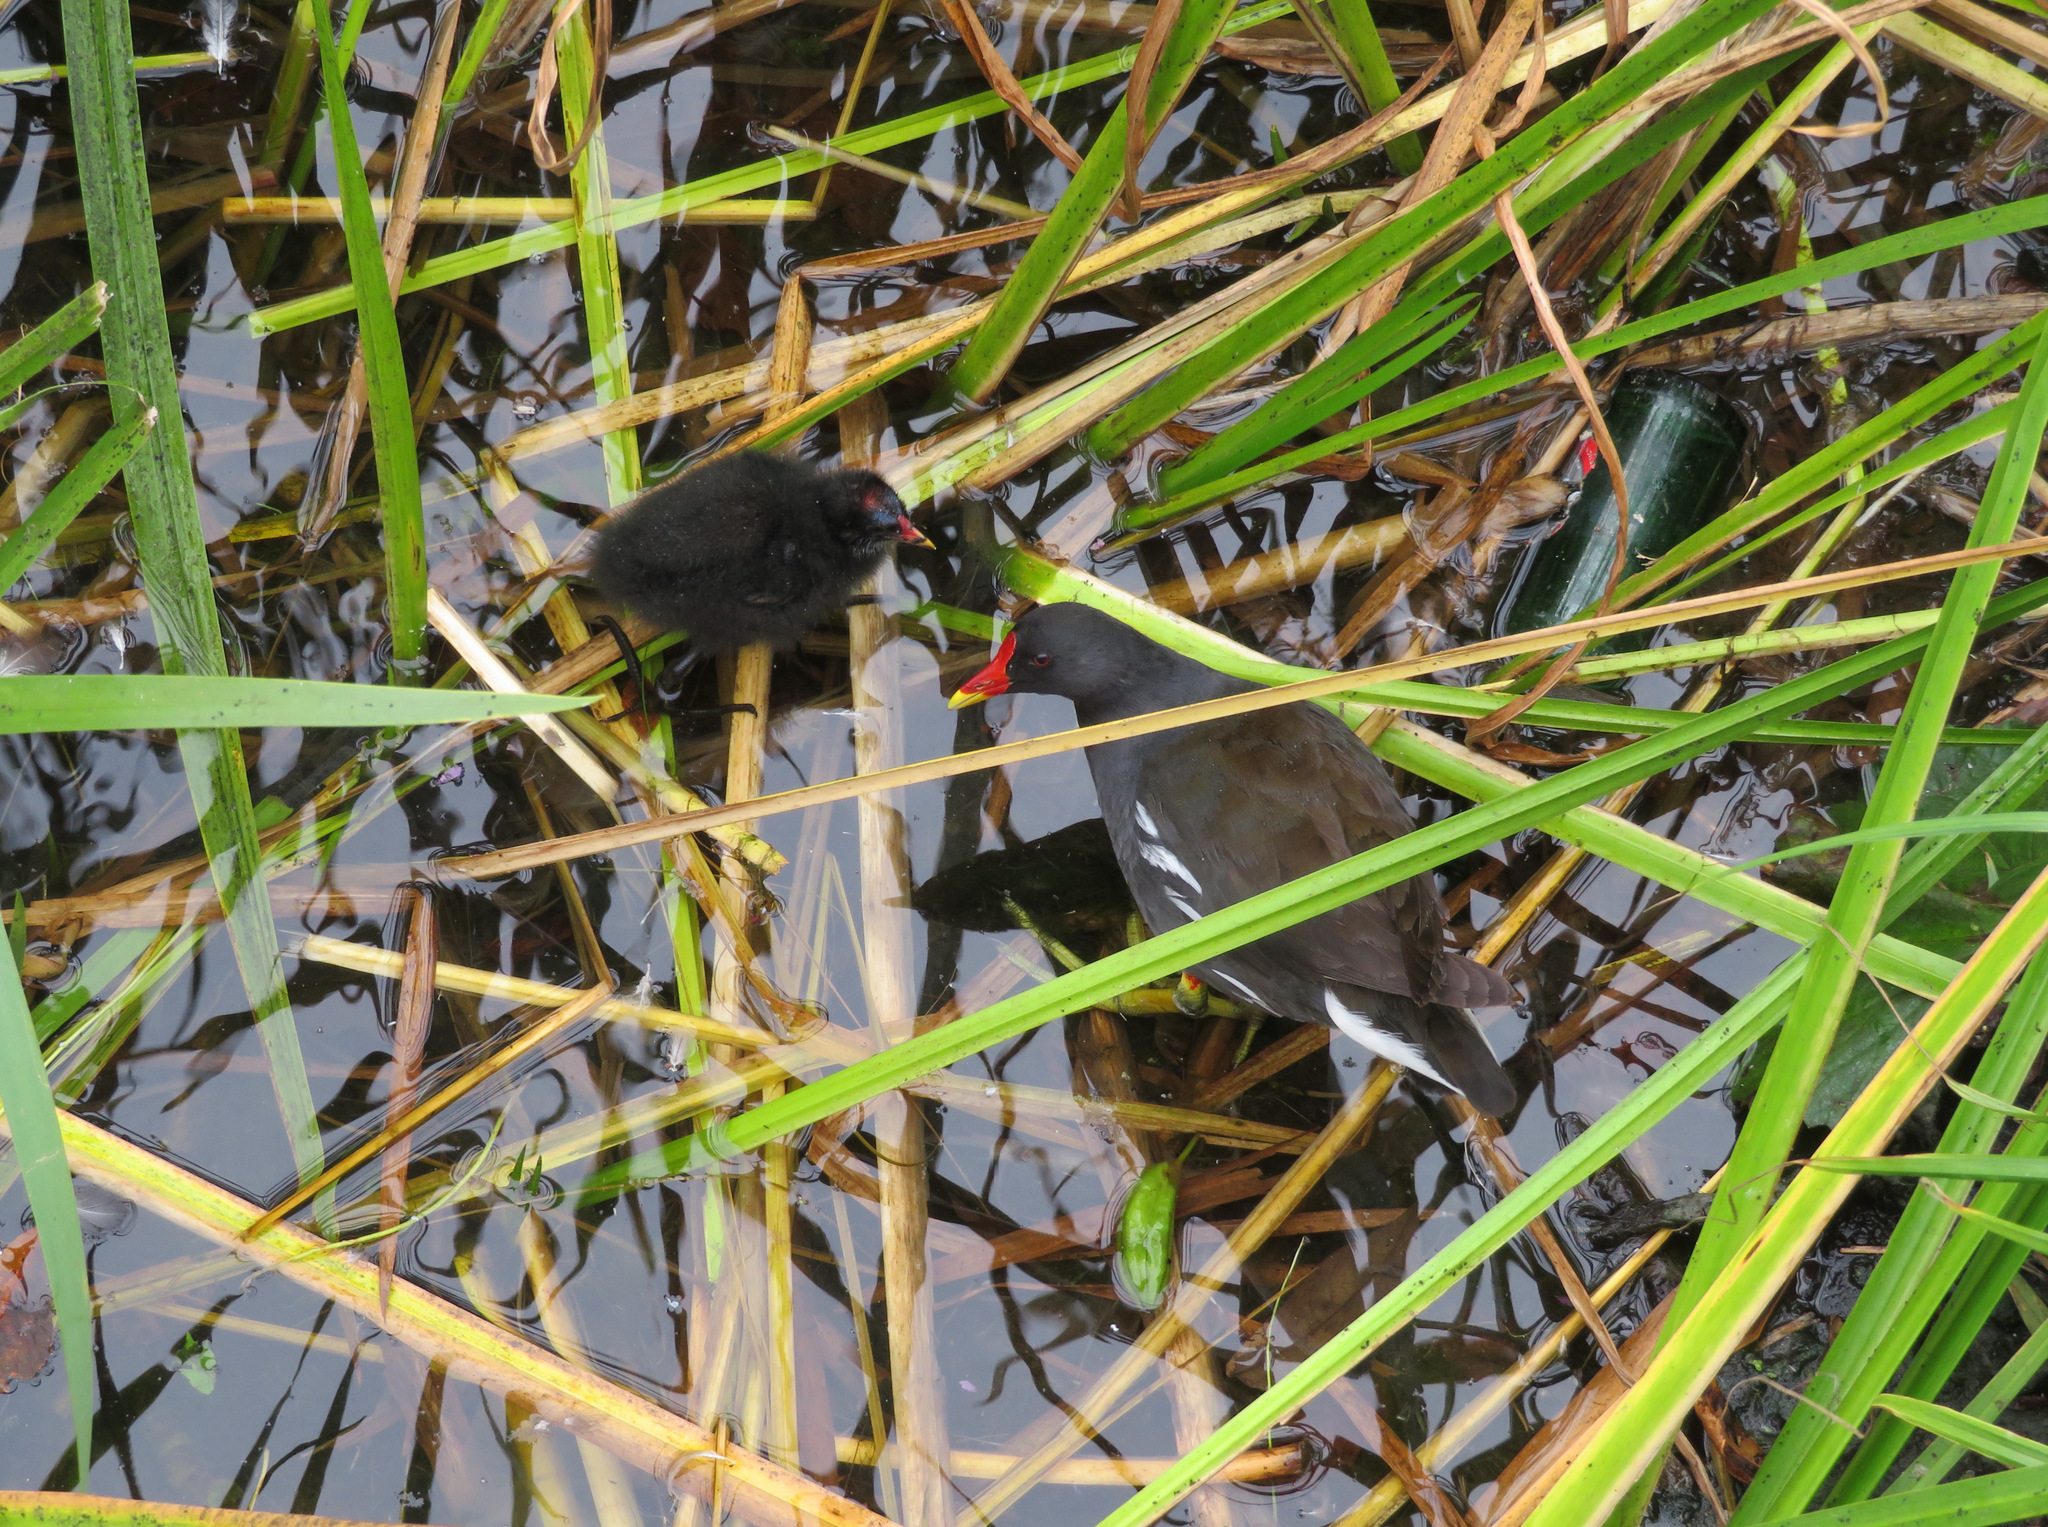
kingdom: Animalia
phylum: Chordata
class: Aves
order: Gruiformes
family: Rallidae
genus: Gallinula
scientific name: Gallinula chloropus
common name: Common moorhen
